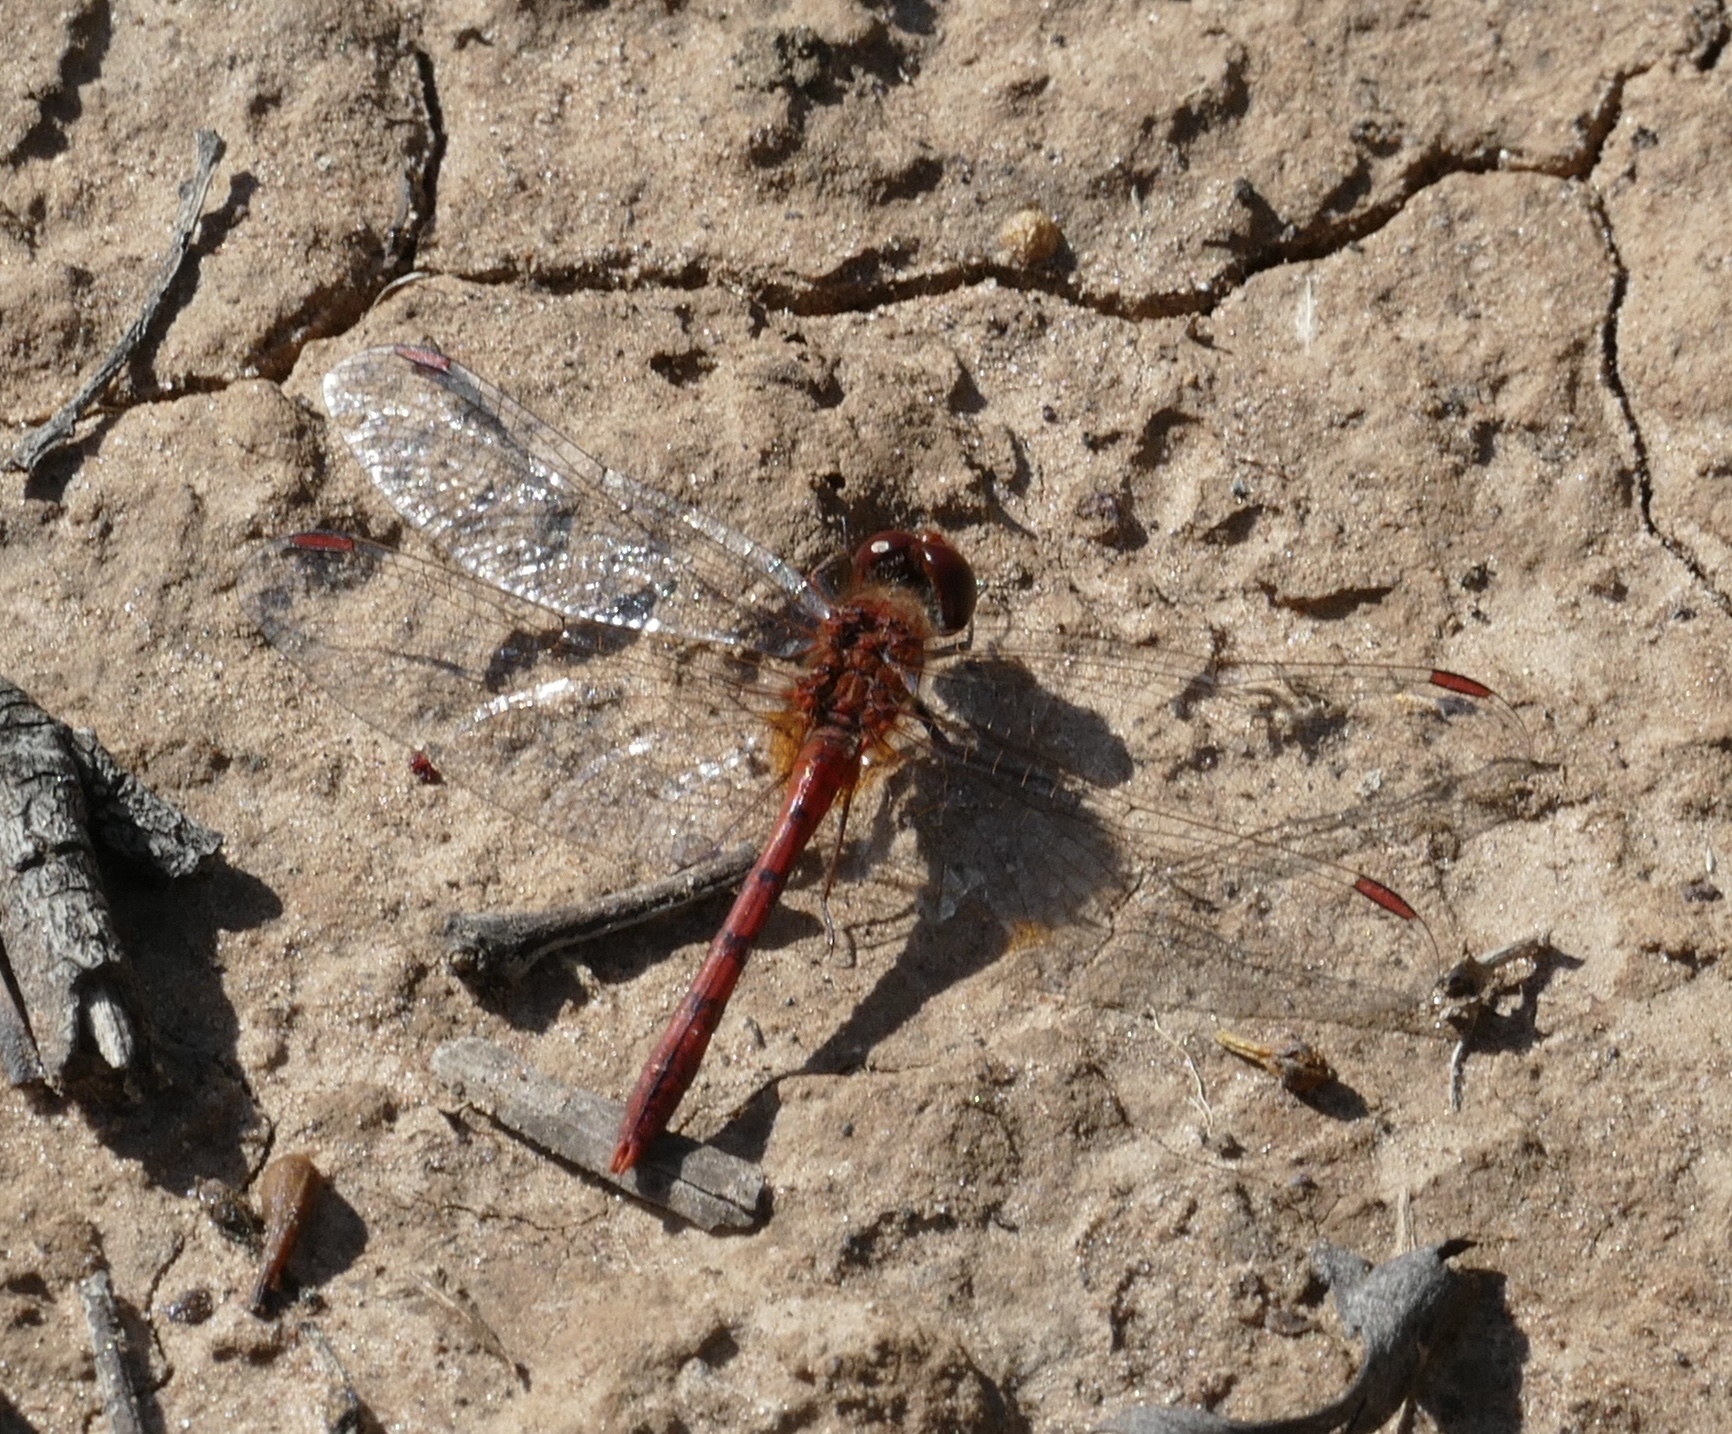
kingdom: Animalia
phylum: Arthropoda
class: Insecta
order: Odonata
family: Libellulidae
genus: Diplacodes
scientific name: Diplacodes bipunctata
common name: Red percher dragonfly
